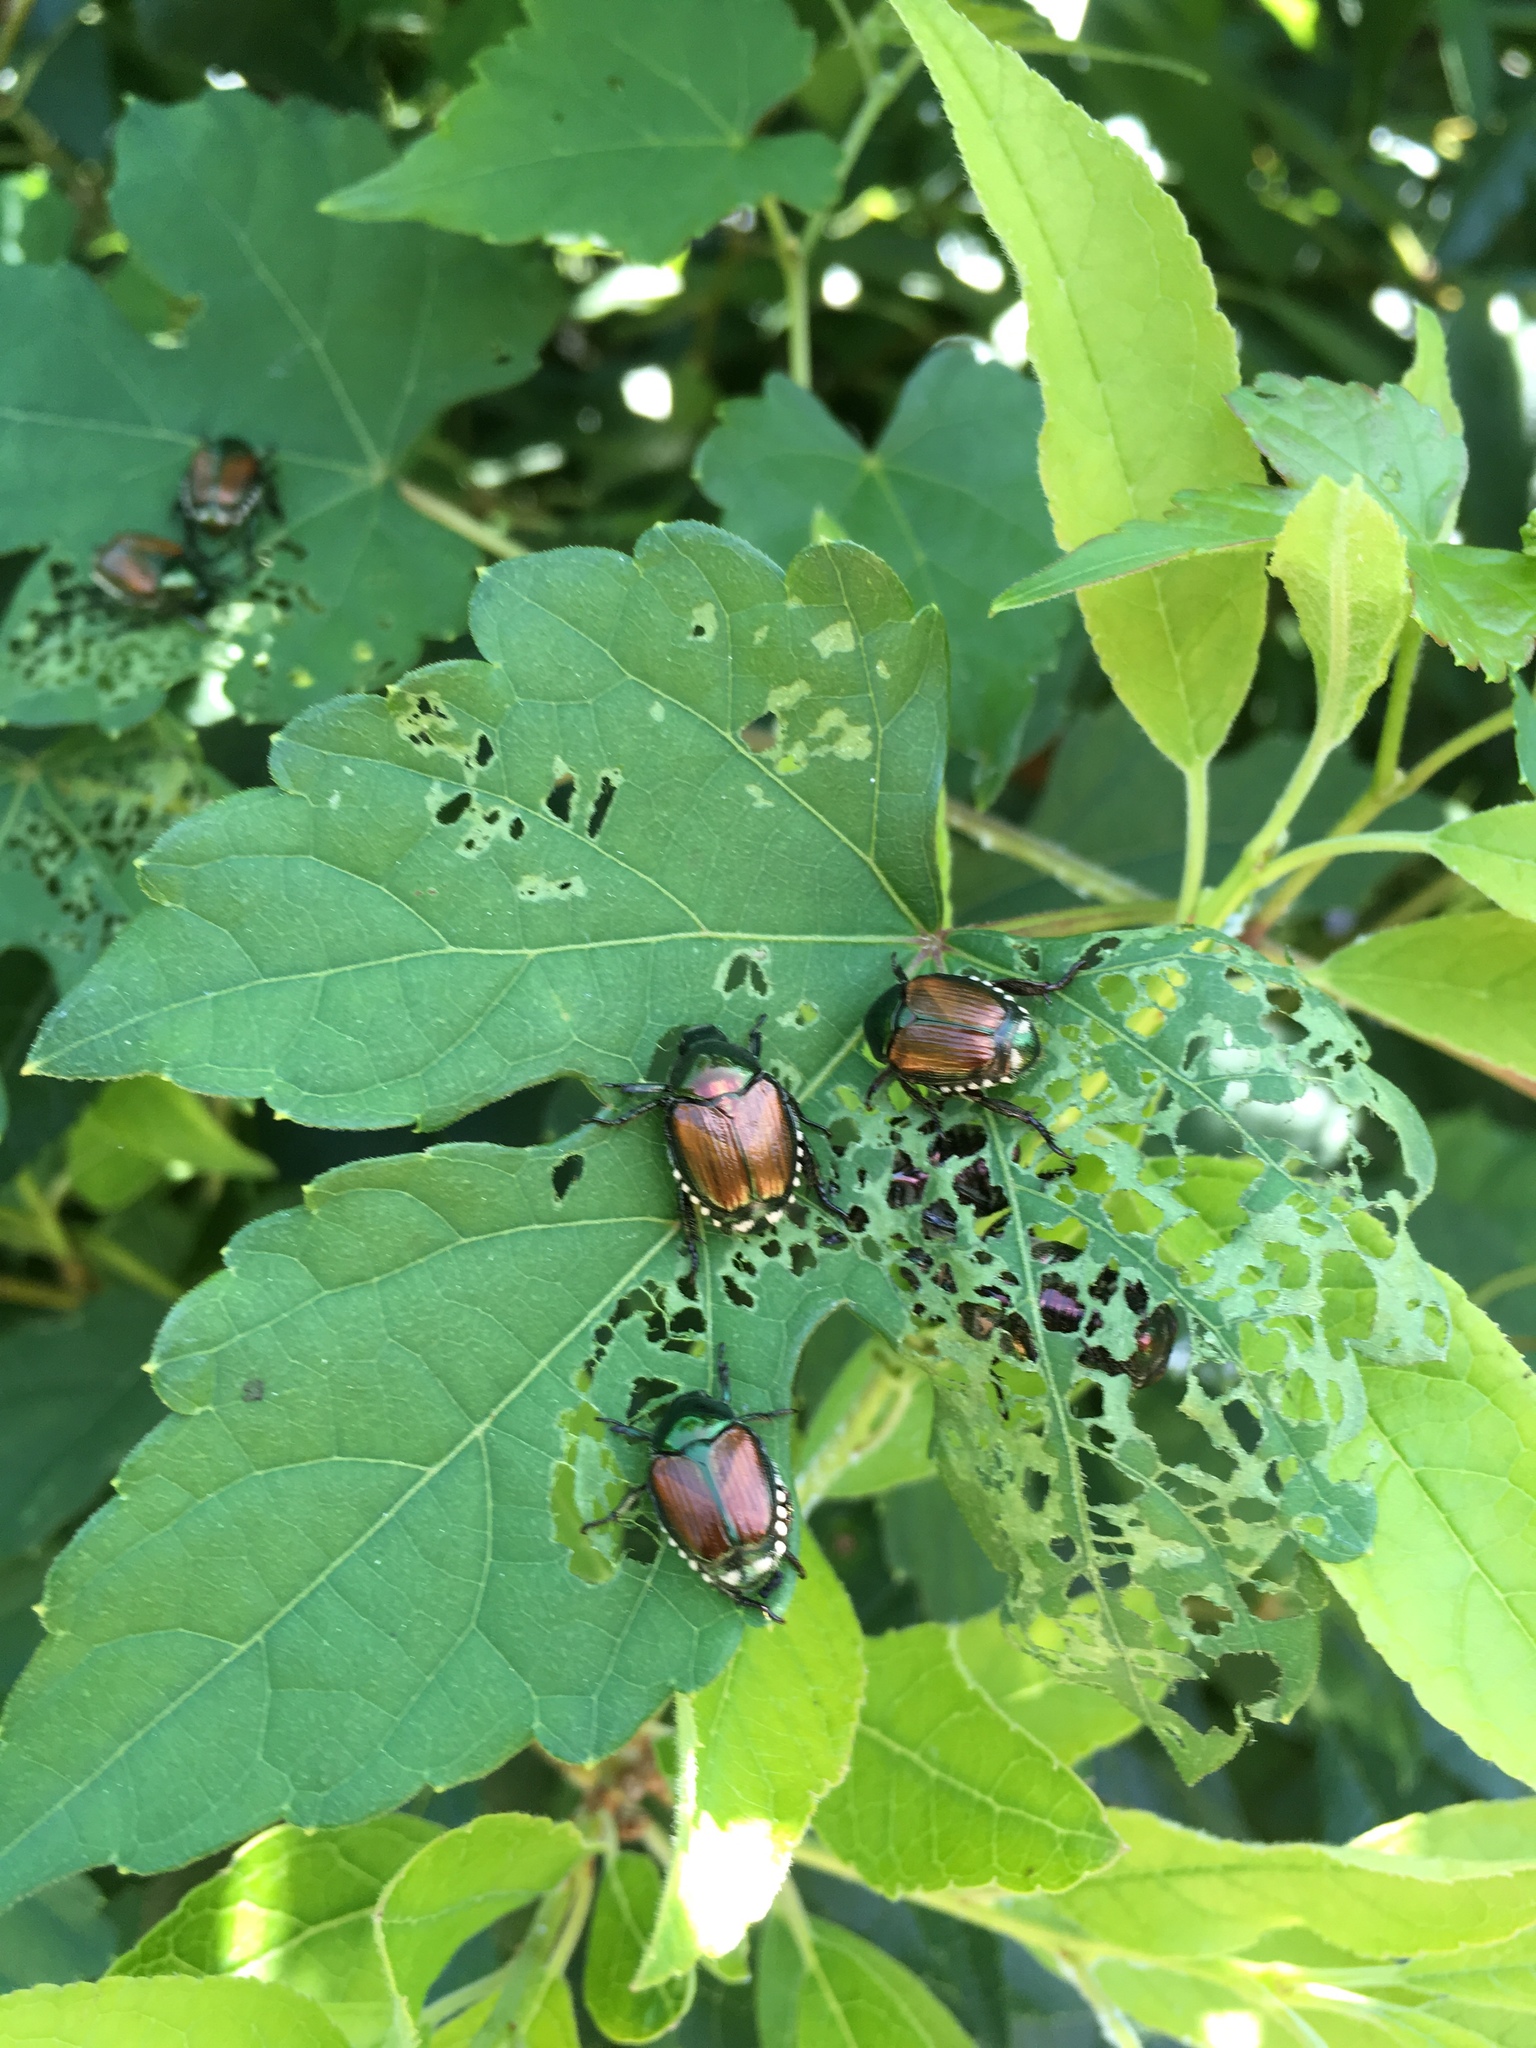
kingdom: Animalia
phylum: Arthropoda
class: Insecta
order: Coleoptera
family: Scarabaeidae
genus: Popillia
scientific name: Popillia japonica
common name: Japanese beetle
